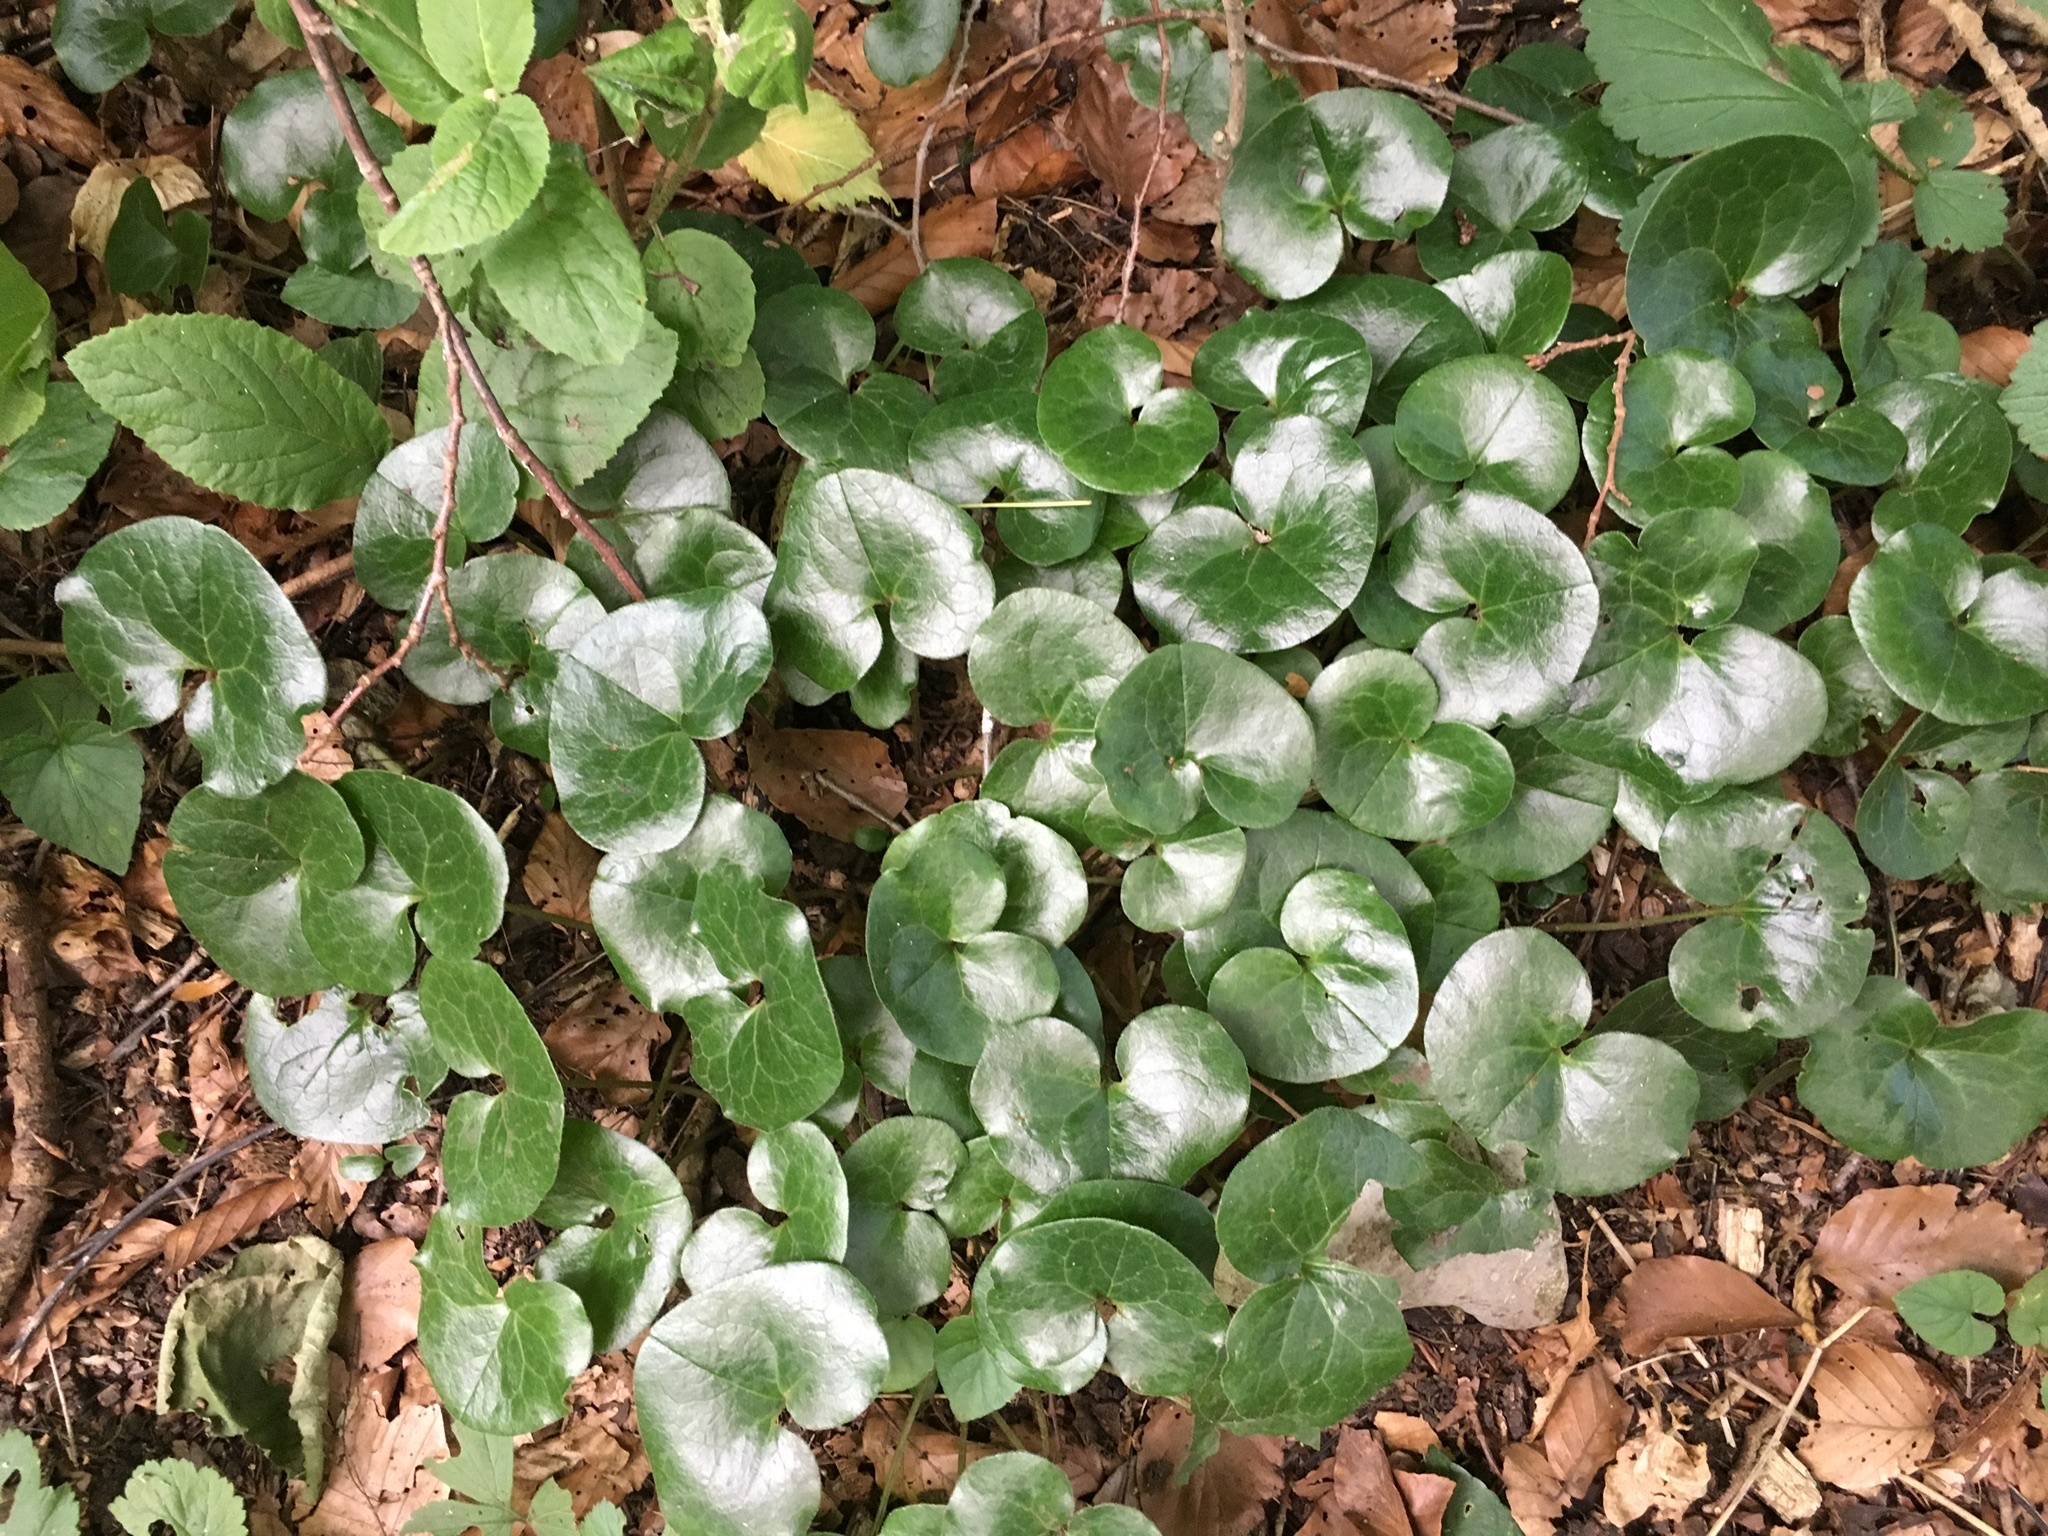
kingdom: Plantae
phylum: Tracheophyta
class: Magnoliopsida
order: Piperales
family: Aristolochiaceae
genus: Asarum
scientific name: Asarum europaeum
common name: Asarabacca
